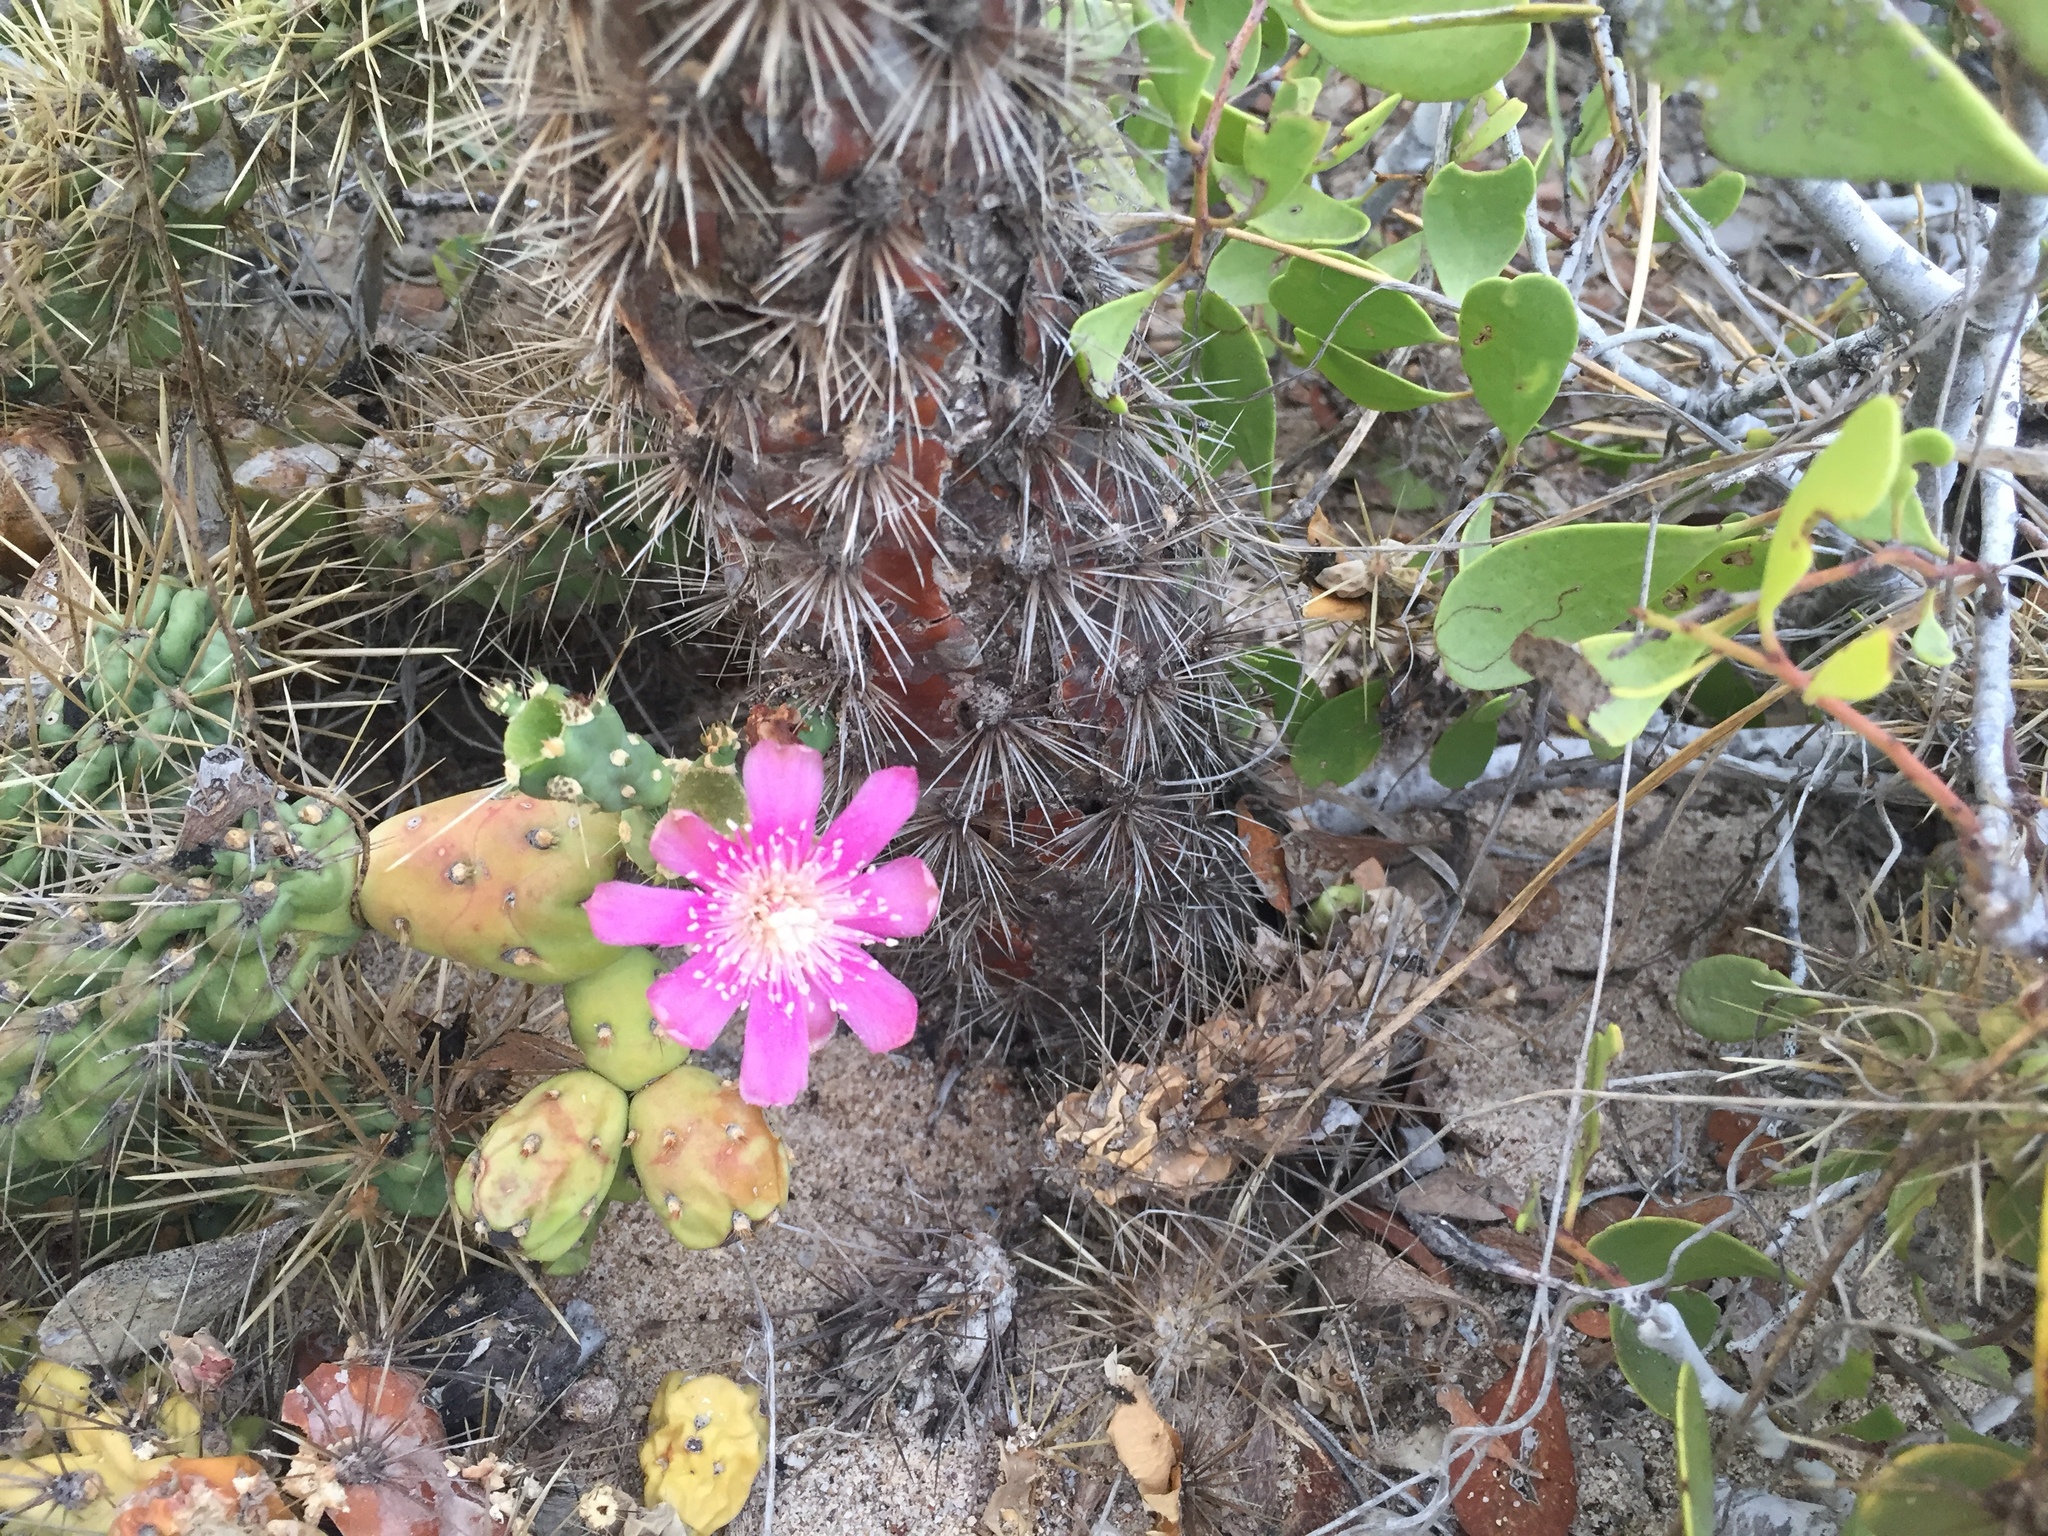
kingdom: Plantae
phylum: Tracheophyta
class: Magnoliopsida
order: Caryophyllales
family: Cactaceae
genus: Cylindropuntia
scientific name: Cylindropuntia fulgida
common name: Jumping cholla
